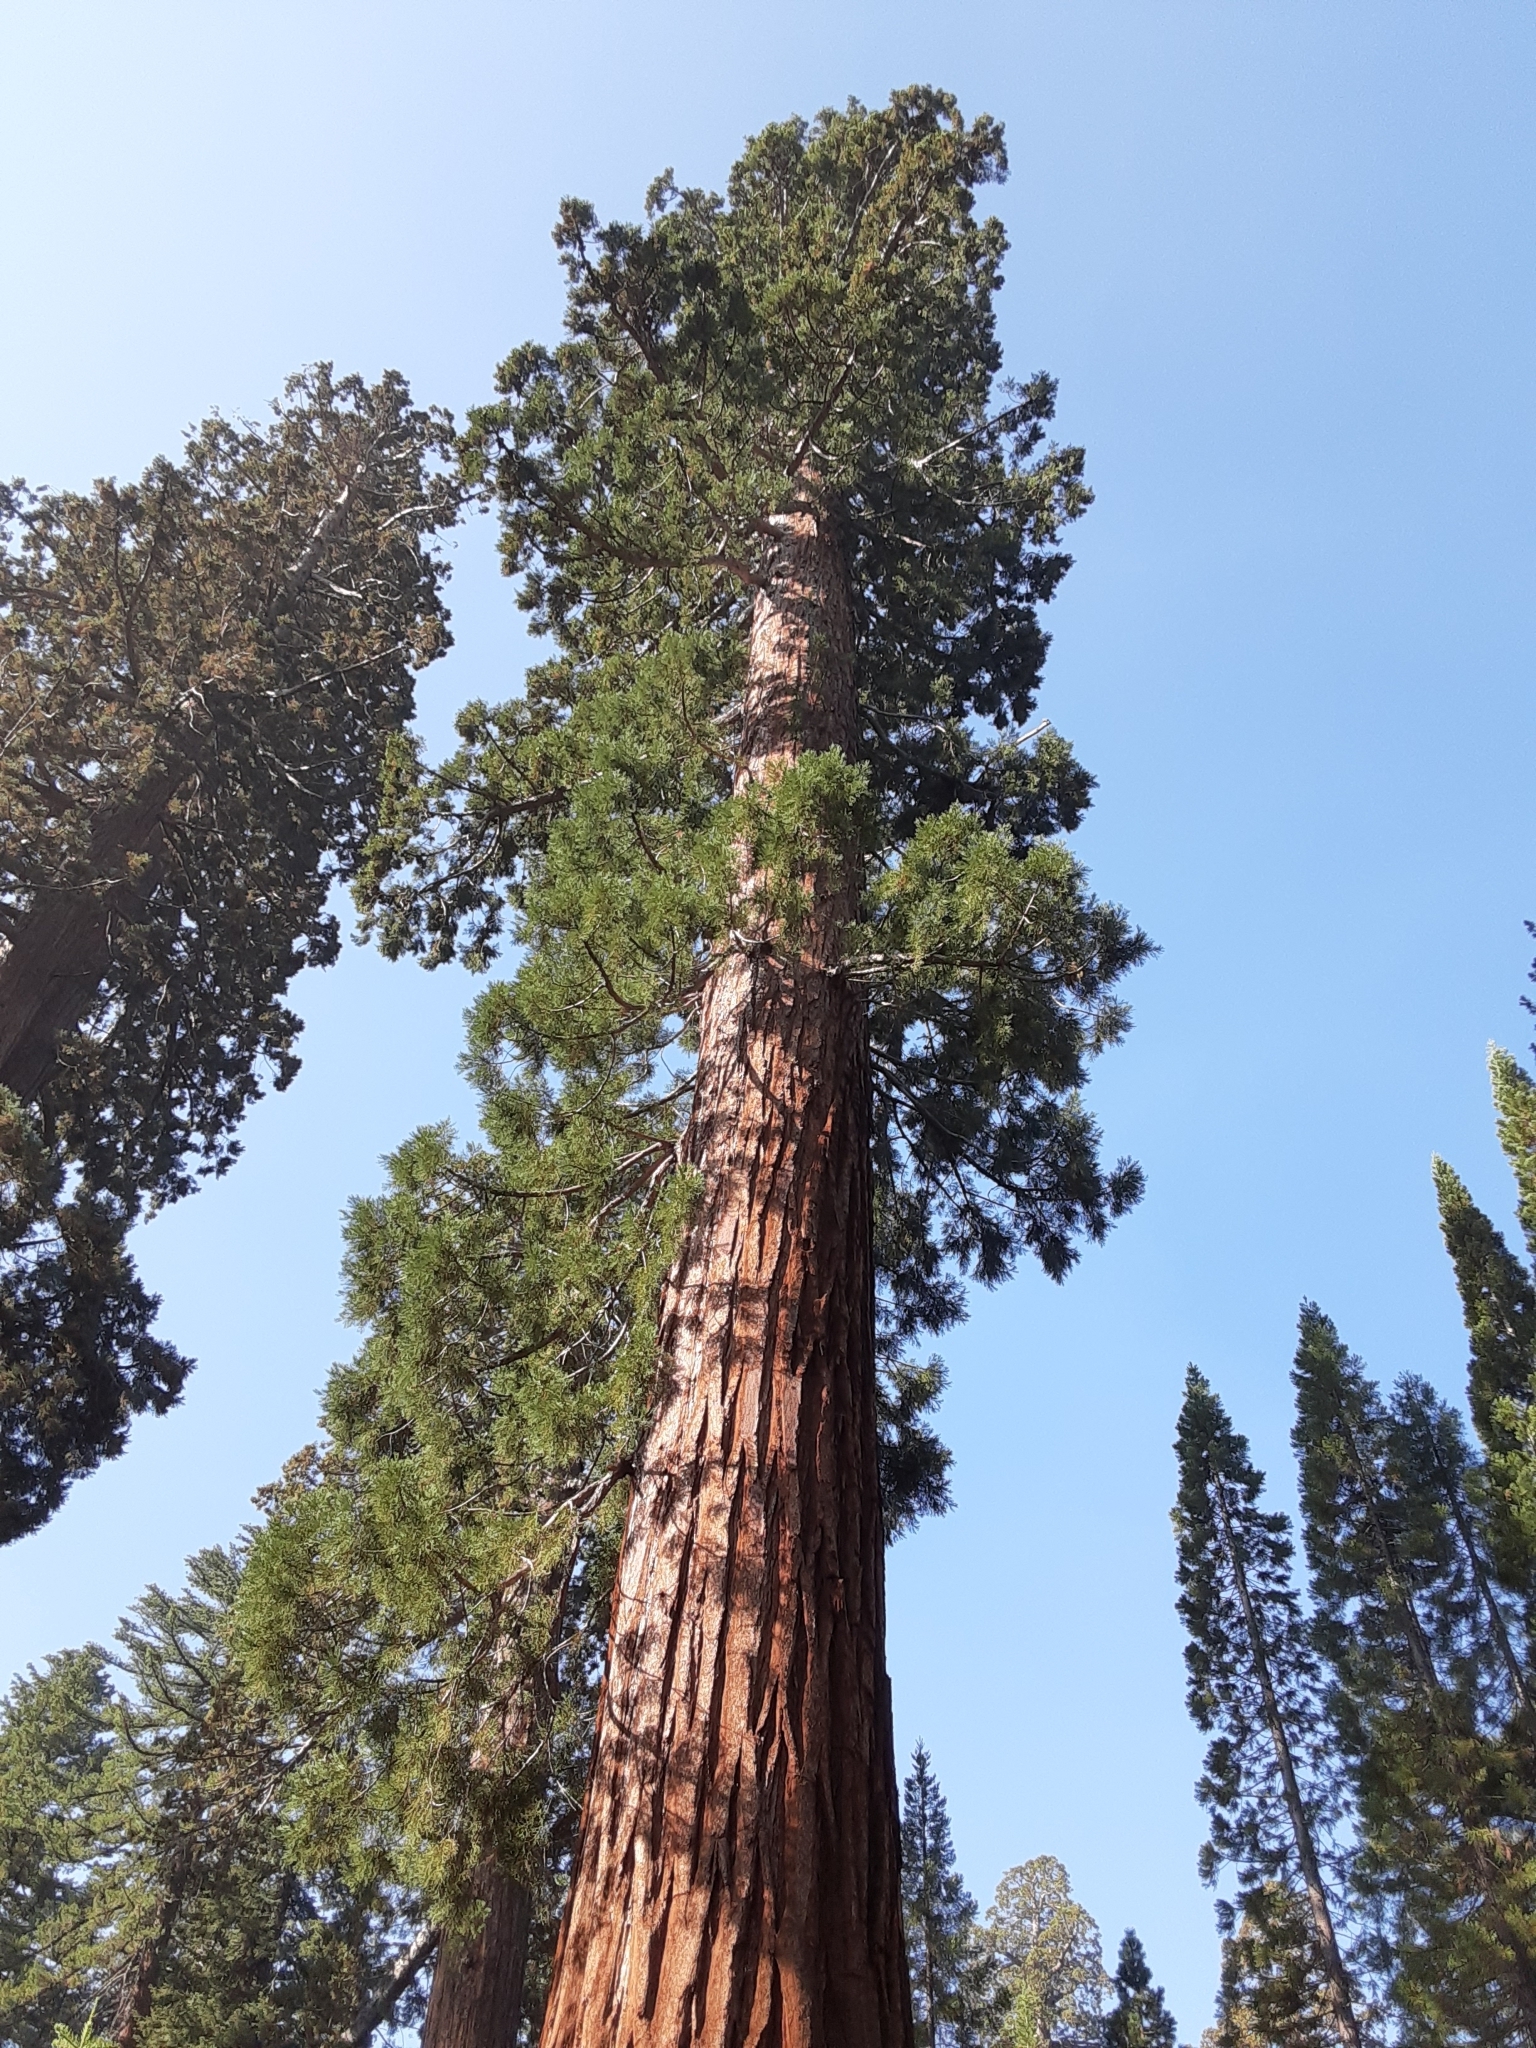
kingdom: Plantae
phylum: Tracheophyta
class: Pinopsida
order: Pinales
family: Cupressaceae
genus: Sequoiadendron
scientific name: Sequoiadendron giganteum
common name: Wellingtonia
